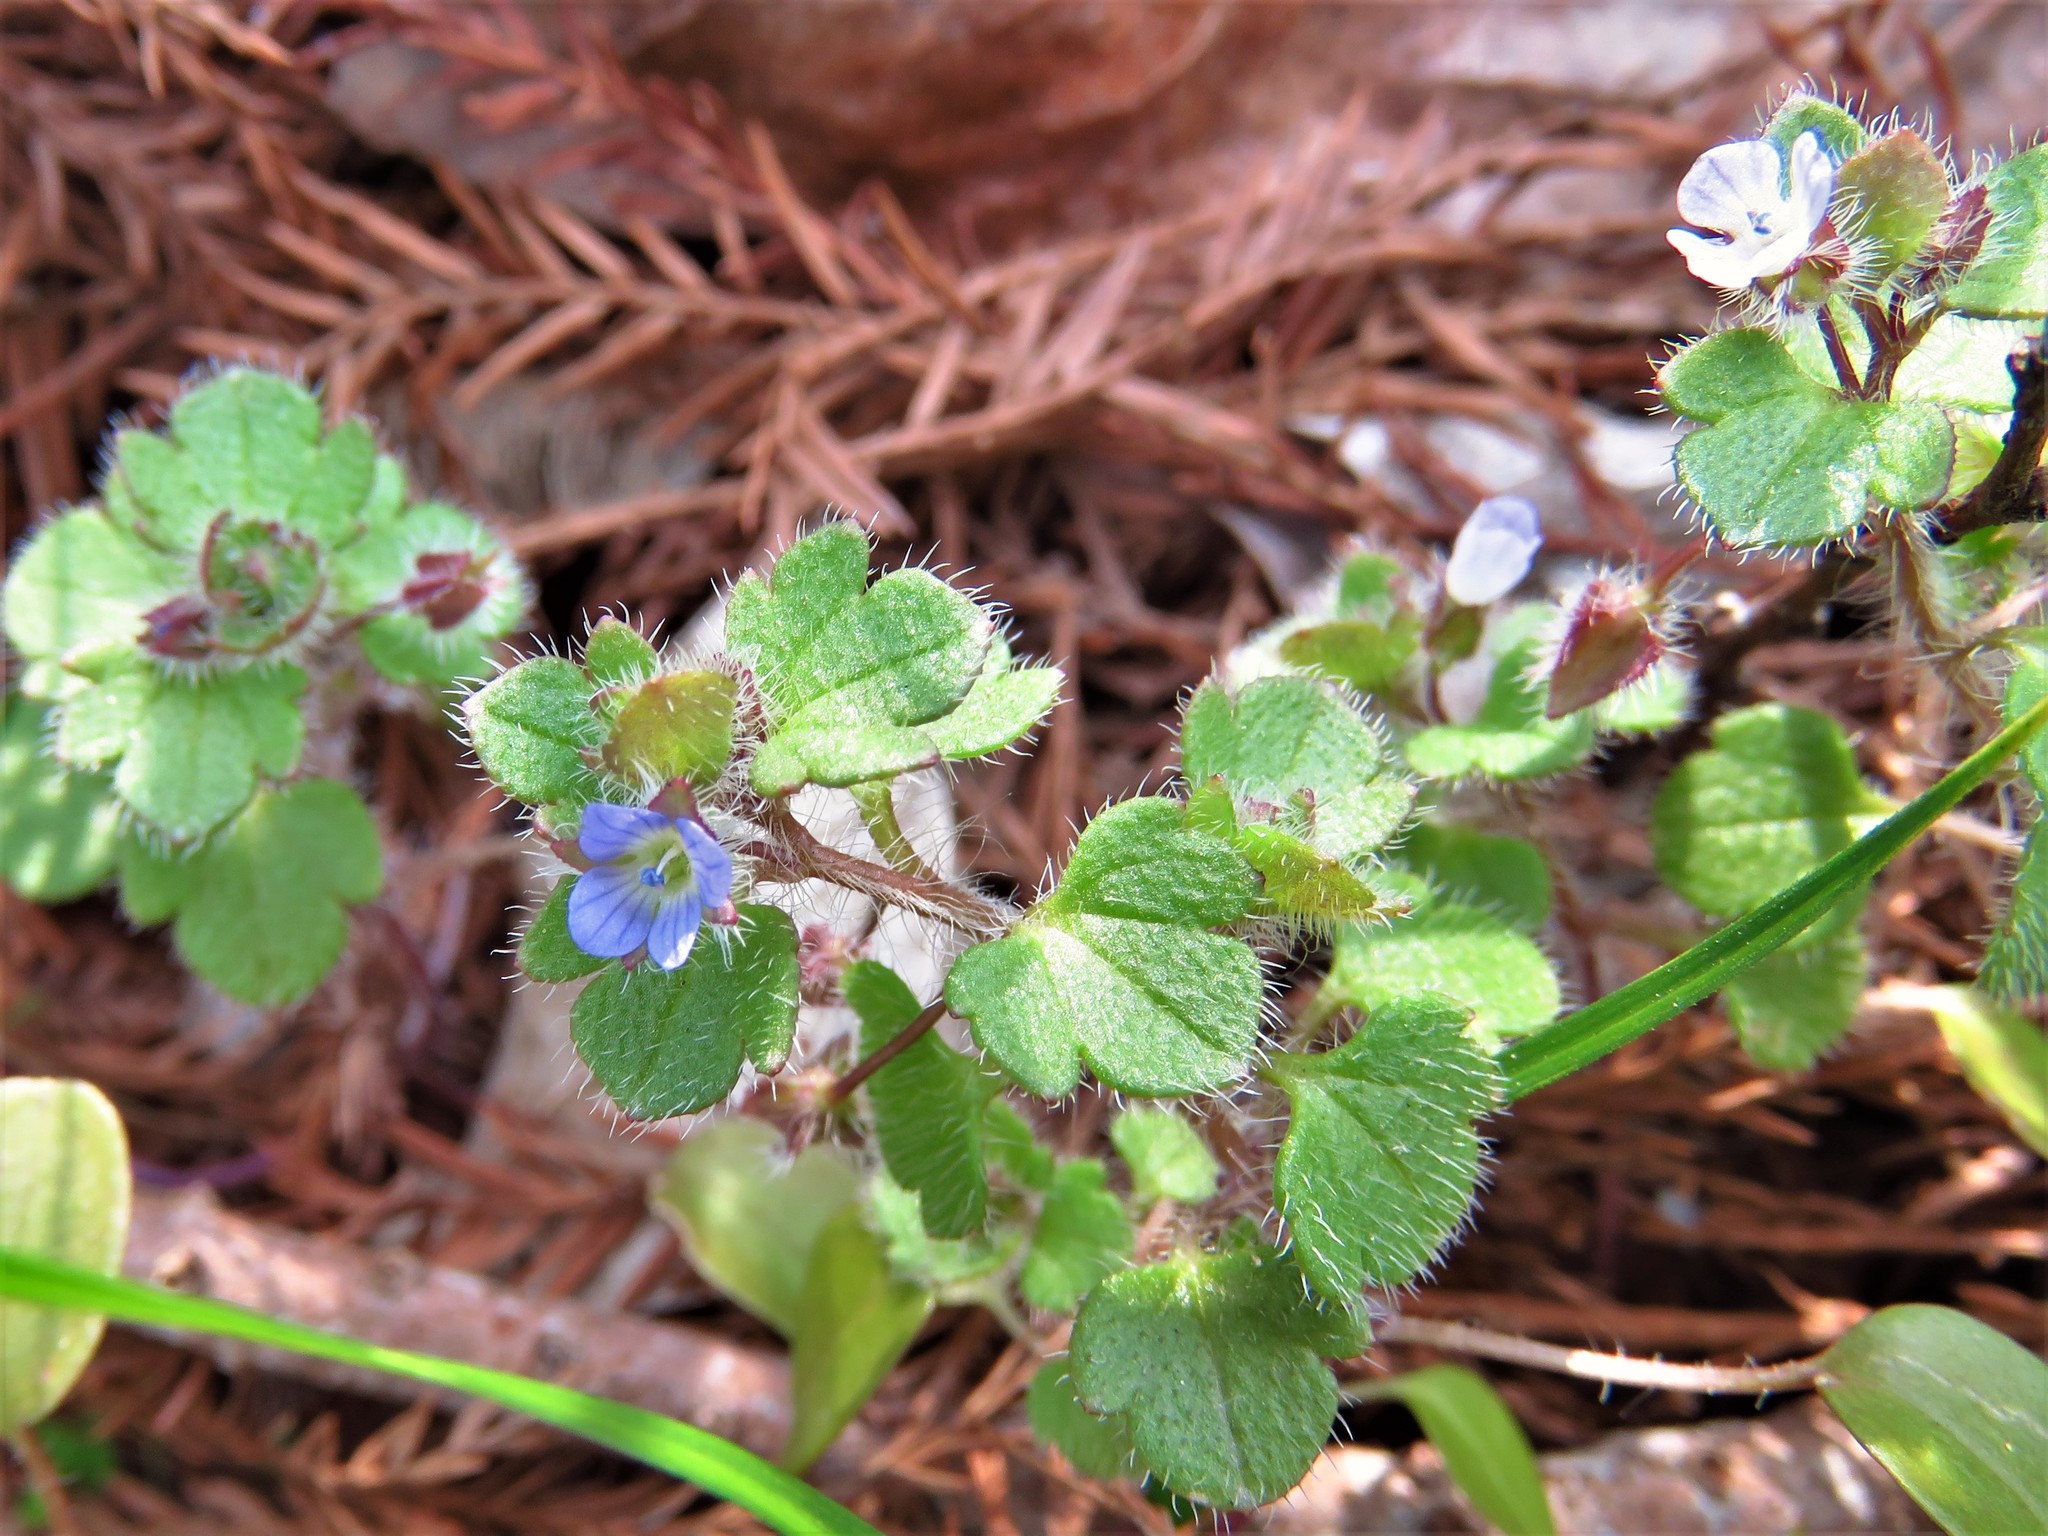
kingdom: Plantae
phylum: Tracheophyta
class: Magnoliopsida
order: Lamiales
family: Plantaginaceae
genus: Veronica
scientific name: Veronica hederifolia
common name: Ivy-leaved speedwell
